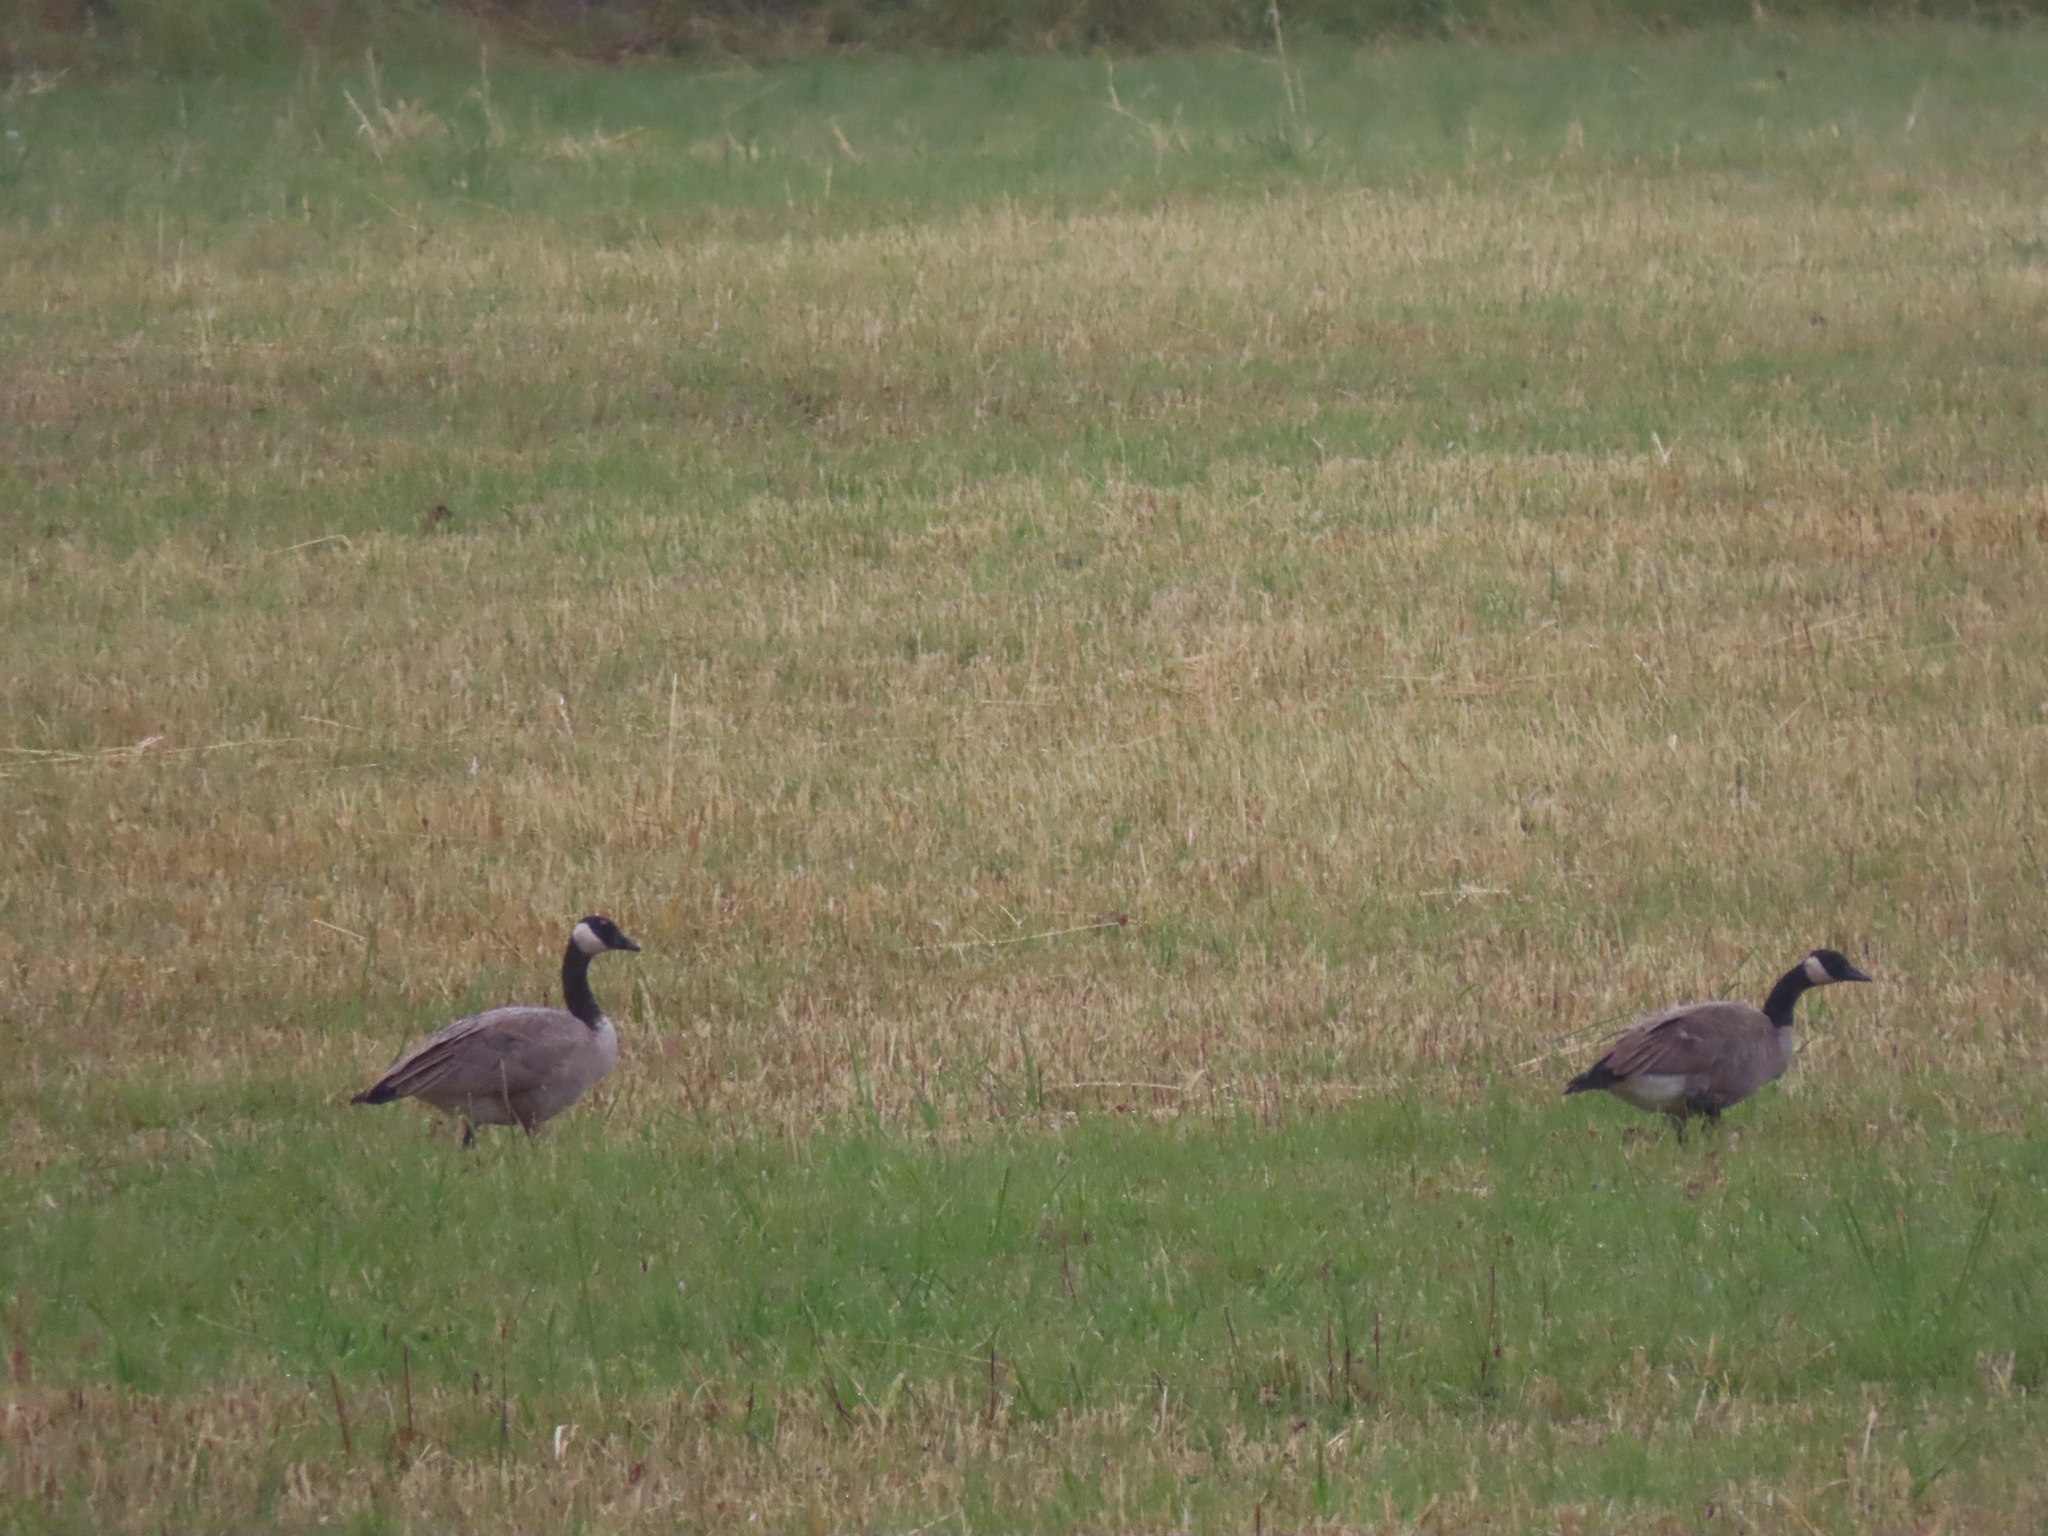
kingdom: Animalia
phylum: Chordata
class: Aves
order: Anseriformes
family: Anatidae
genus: Branta
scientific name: Branta canadensis
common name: Canada goose
